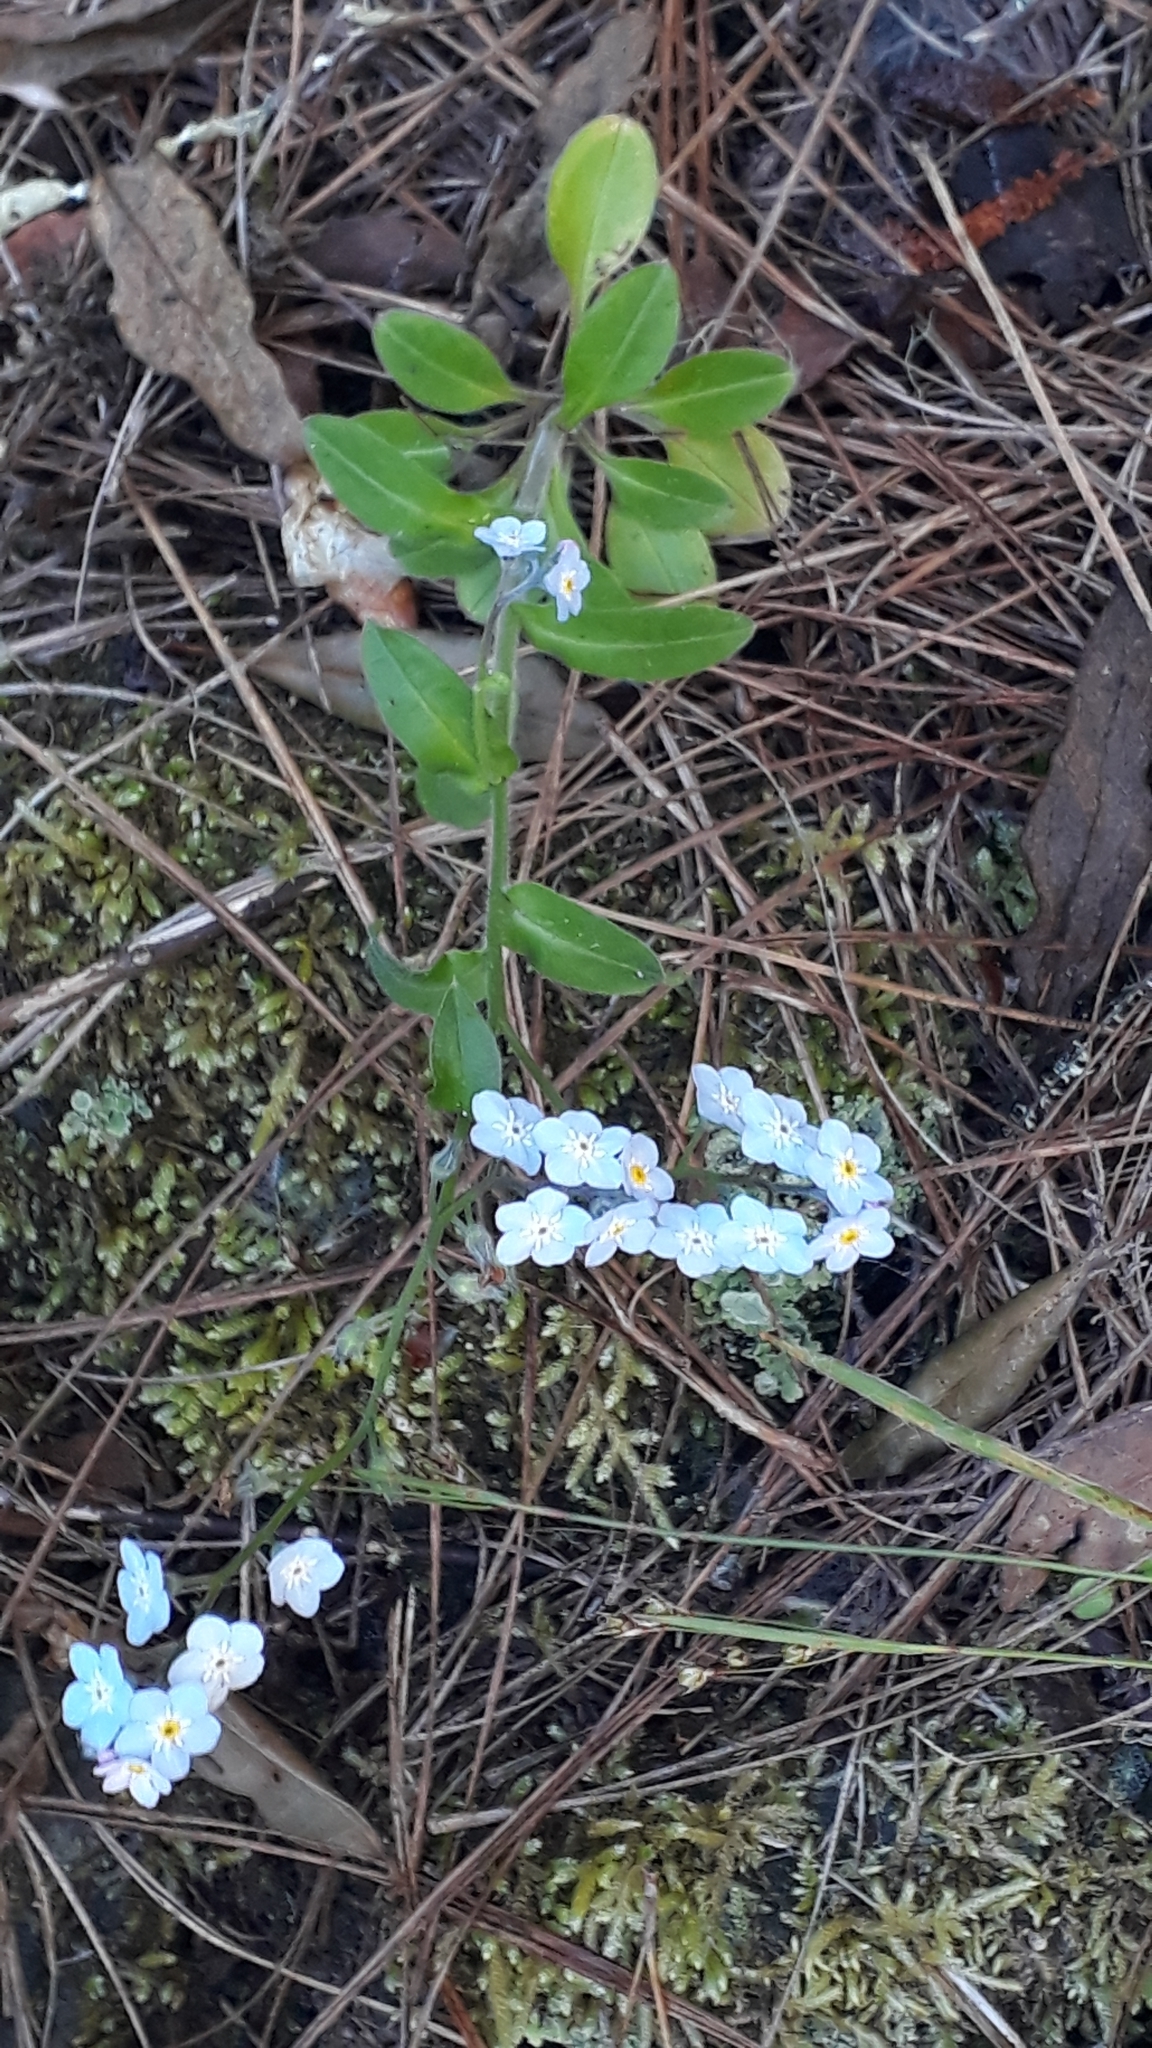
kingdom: Plantae
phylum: Tracheophyta
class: Magnoliopsida
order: Boraginales
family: Boraginaceae
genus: Myosotis
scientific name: Myosotis latifolia
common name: Broadleaf forget-me-not
